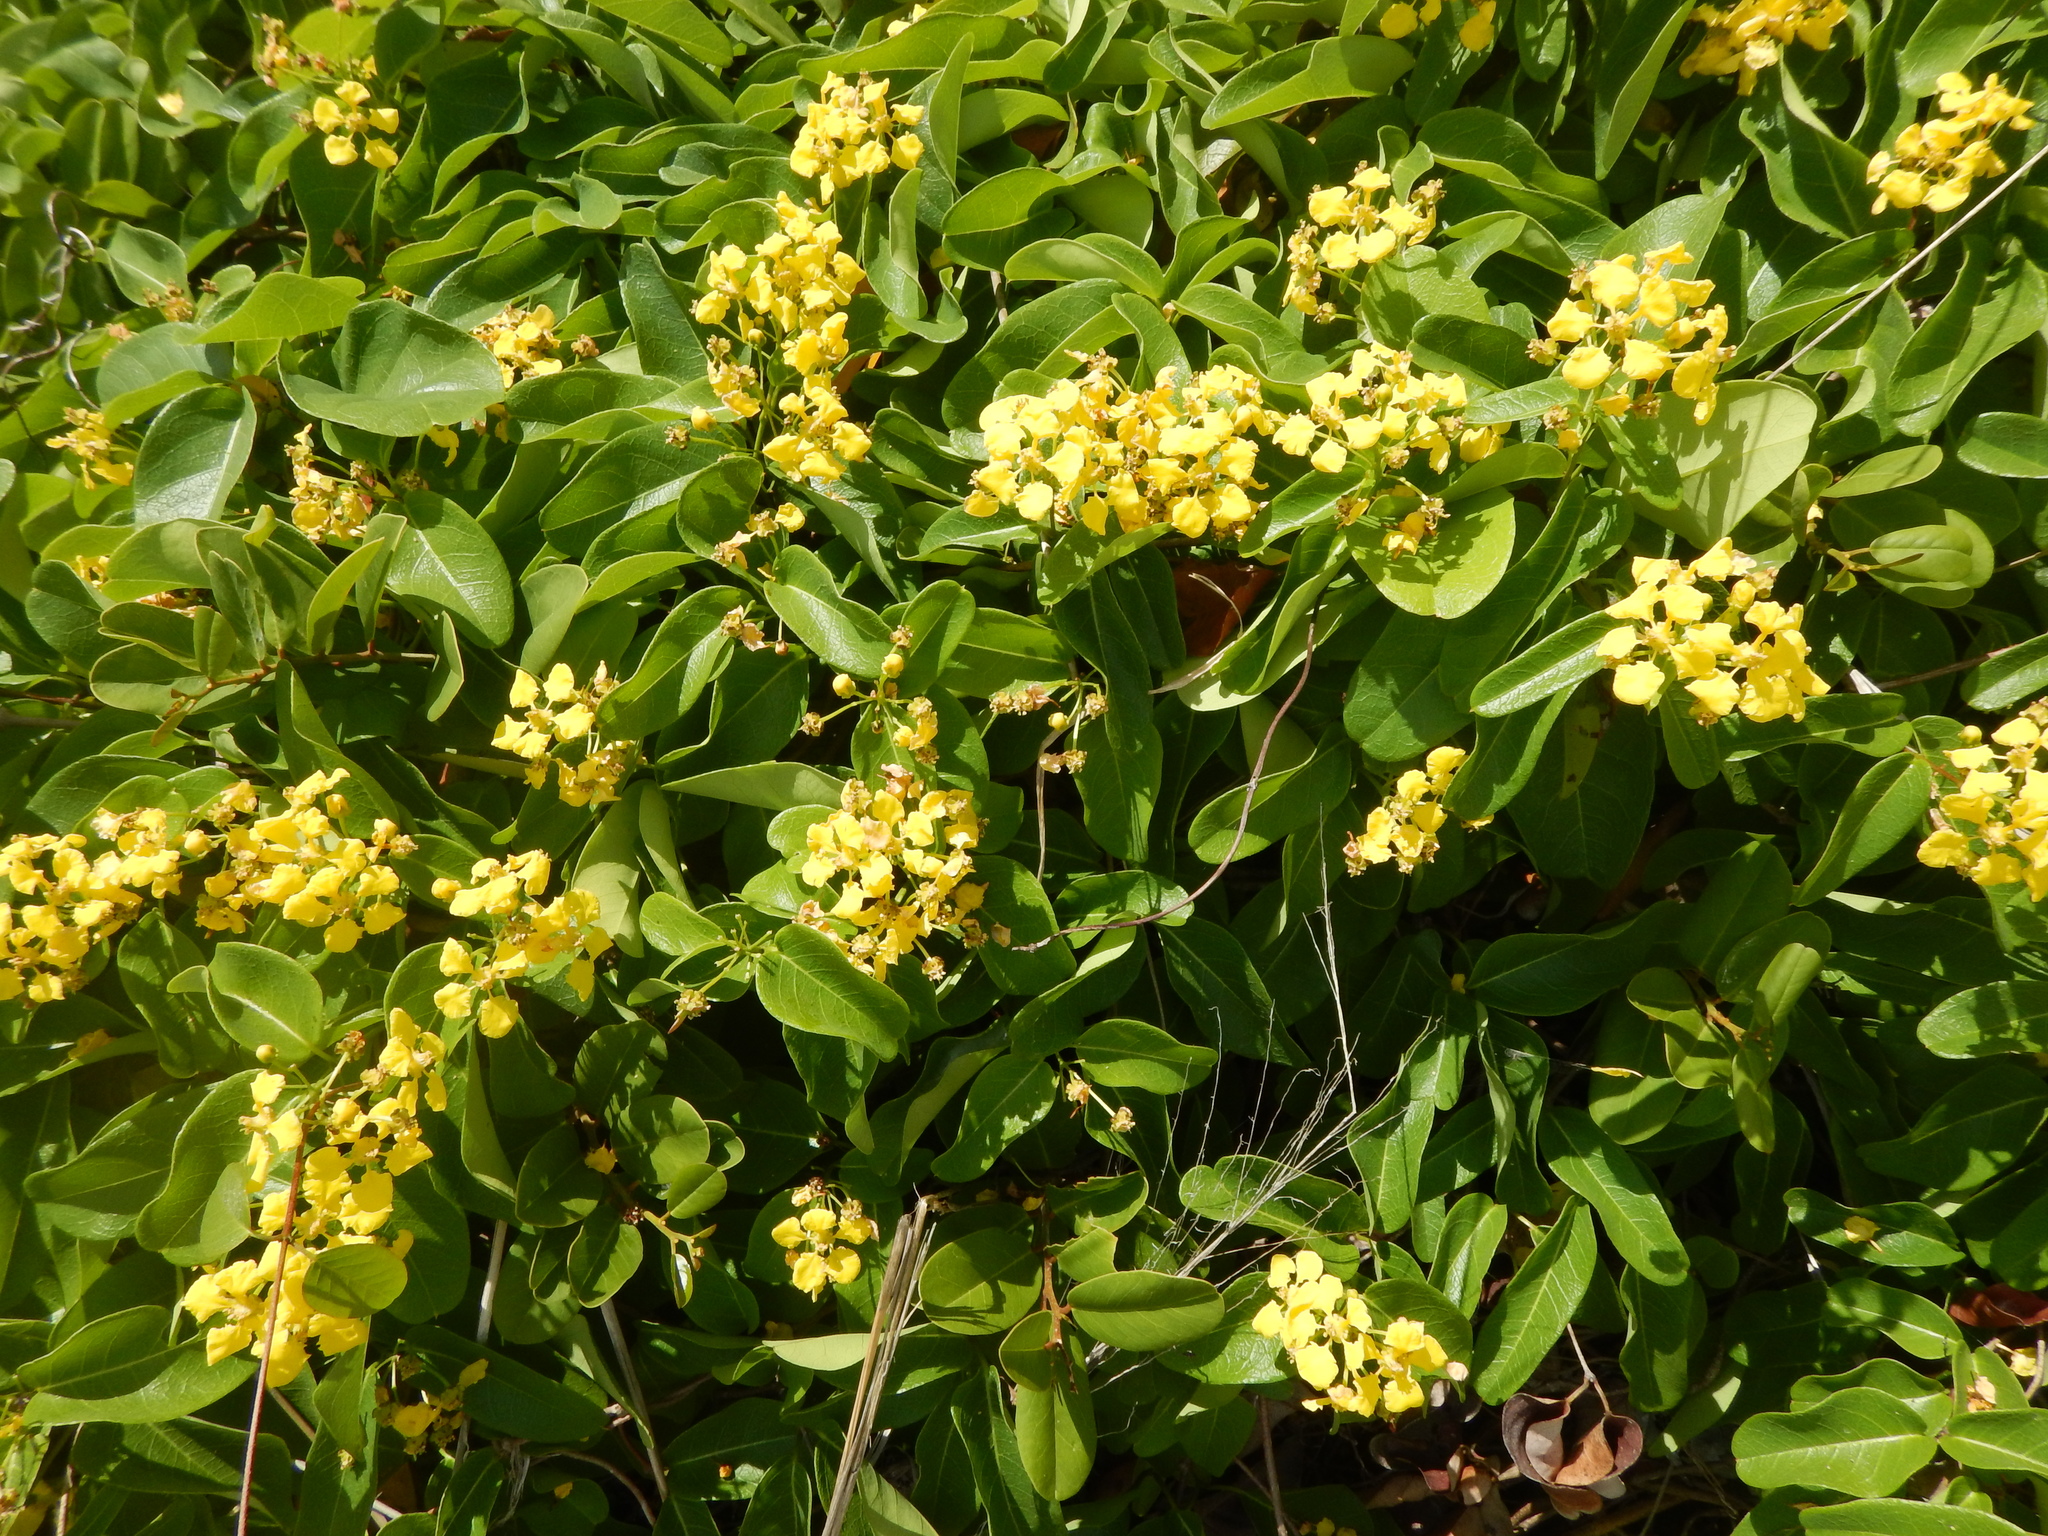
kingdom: Plantae
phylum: Tracheophyta
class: Magnoliopsida
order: Malpighiales
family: Malpighiaceae
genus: Stigmaphyllon
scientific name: Stigmaphyllon emarginatum
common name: Monarch amazonvine
